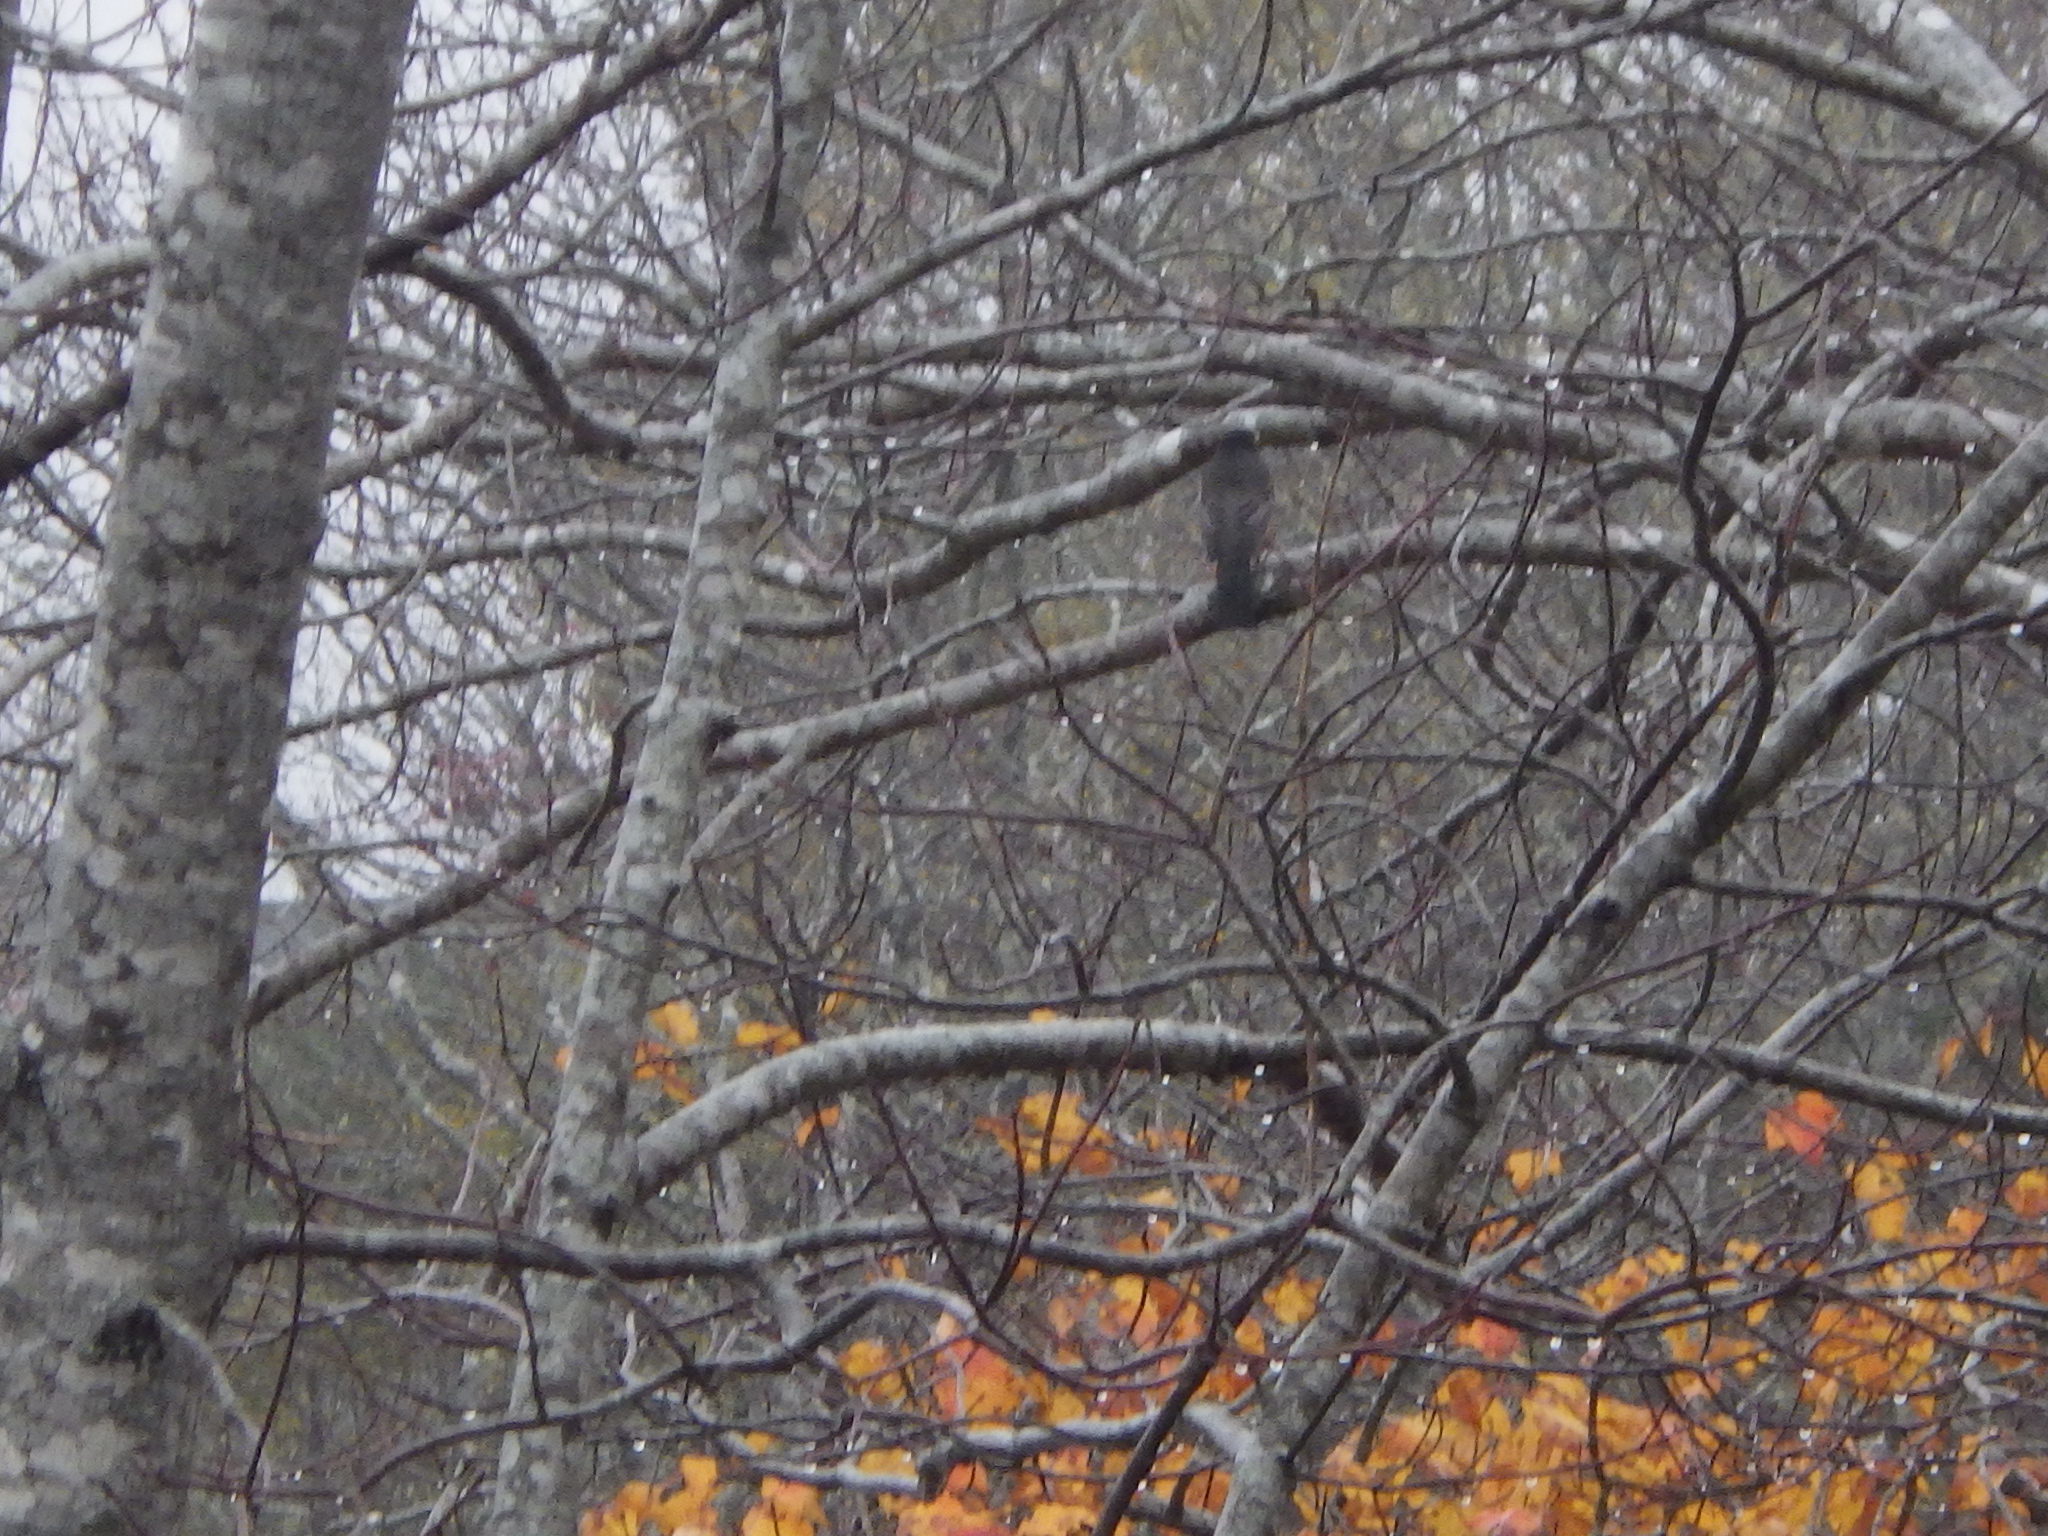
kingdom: Animalia
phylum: Chordata
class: Aves
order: Passeriformes
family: Turdidae
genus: Turdus
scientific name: Turdus migratorius
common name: American robin
